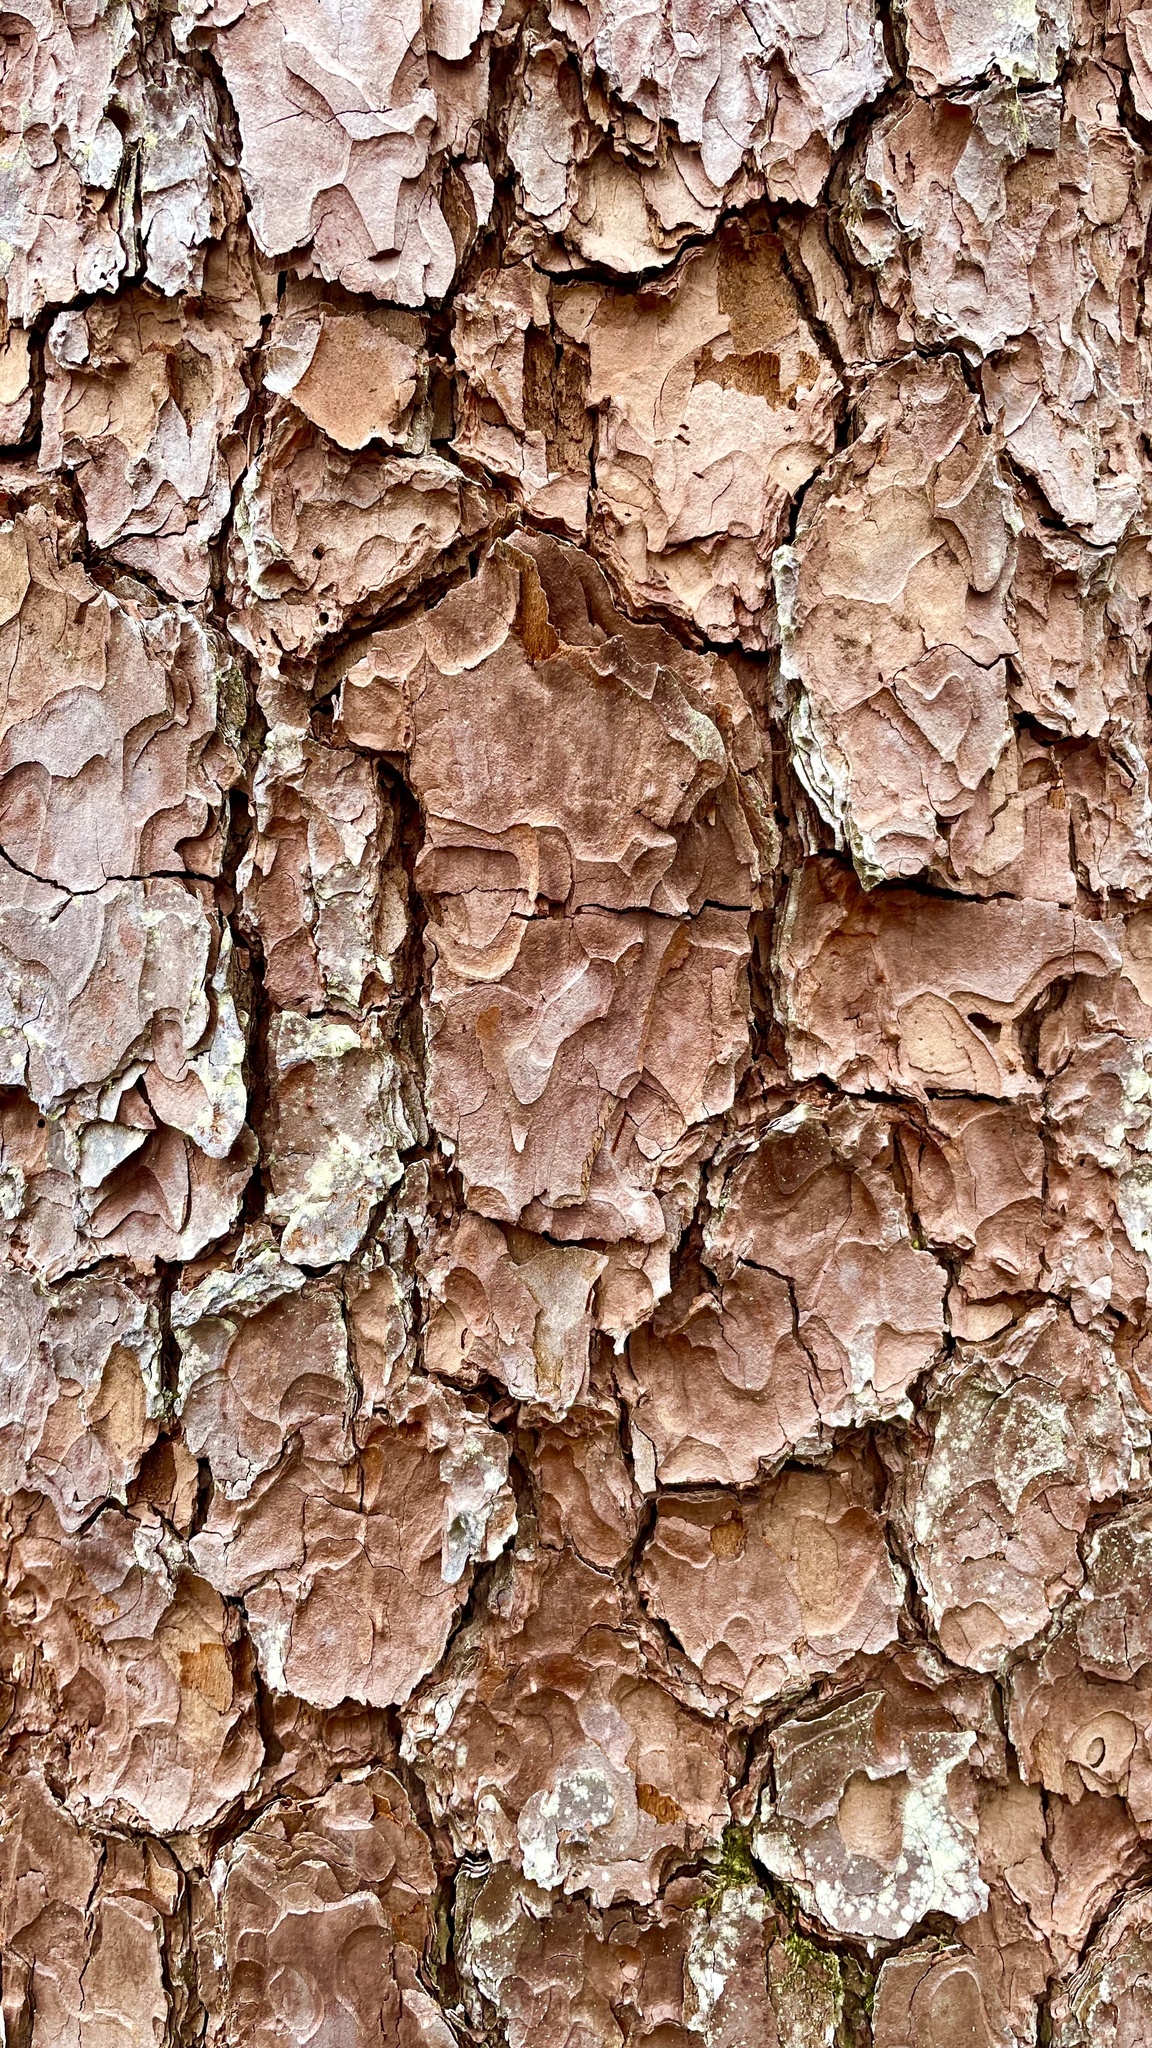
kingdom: Plantae
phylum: Tracheophyta
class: Pinopsida
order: Pinales
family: Pinaceae
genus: Pinus
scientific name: Pinus resinosa
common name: Norway pine
